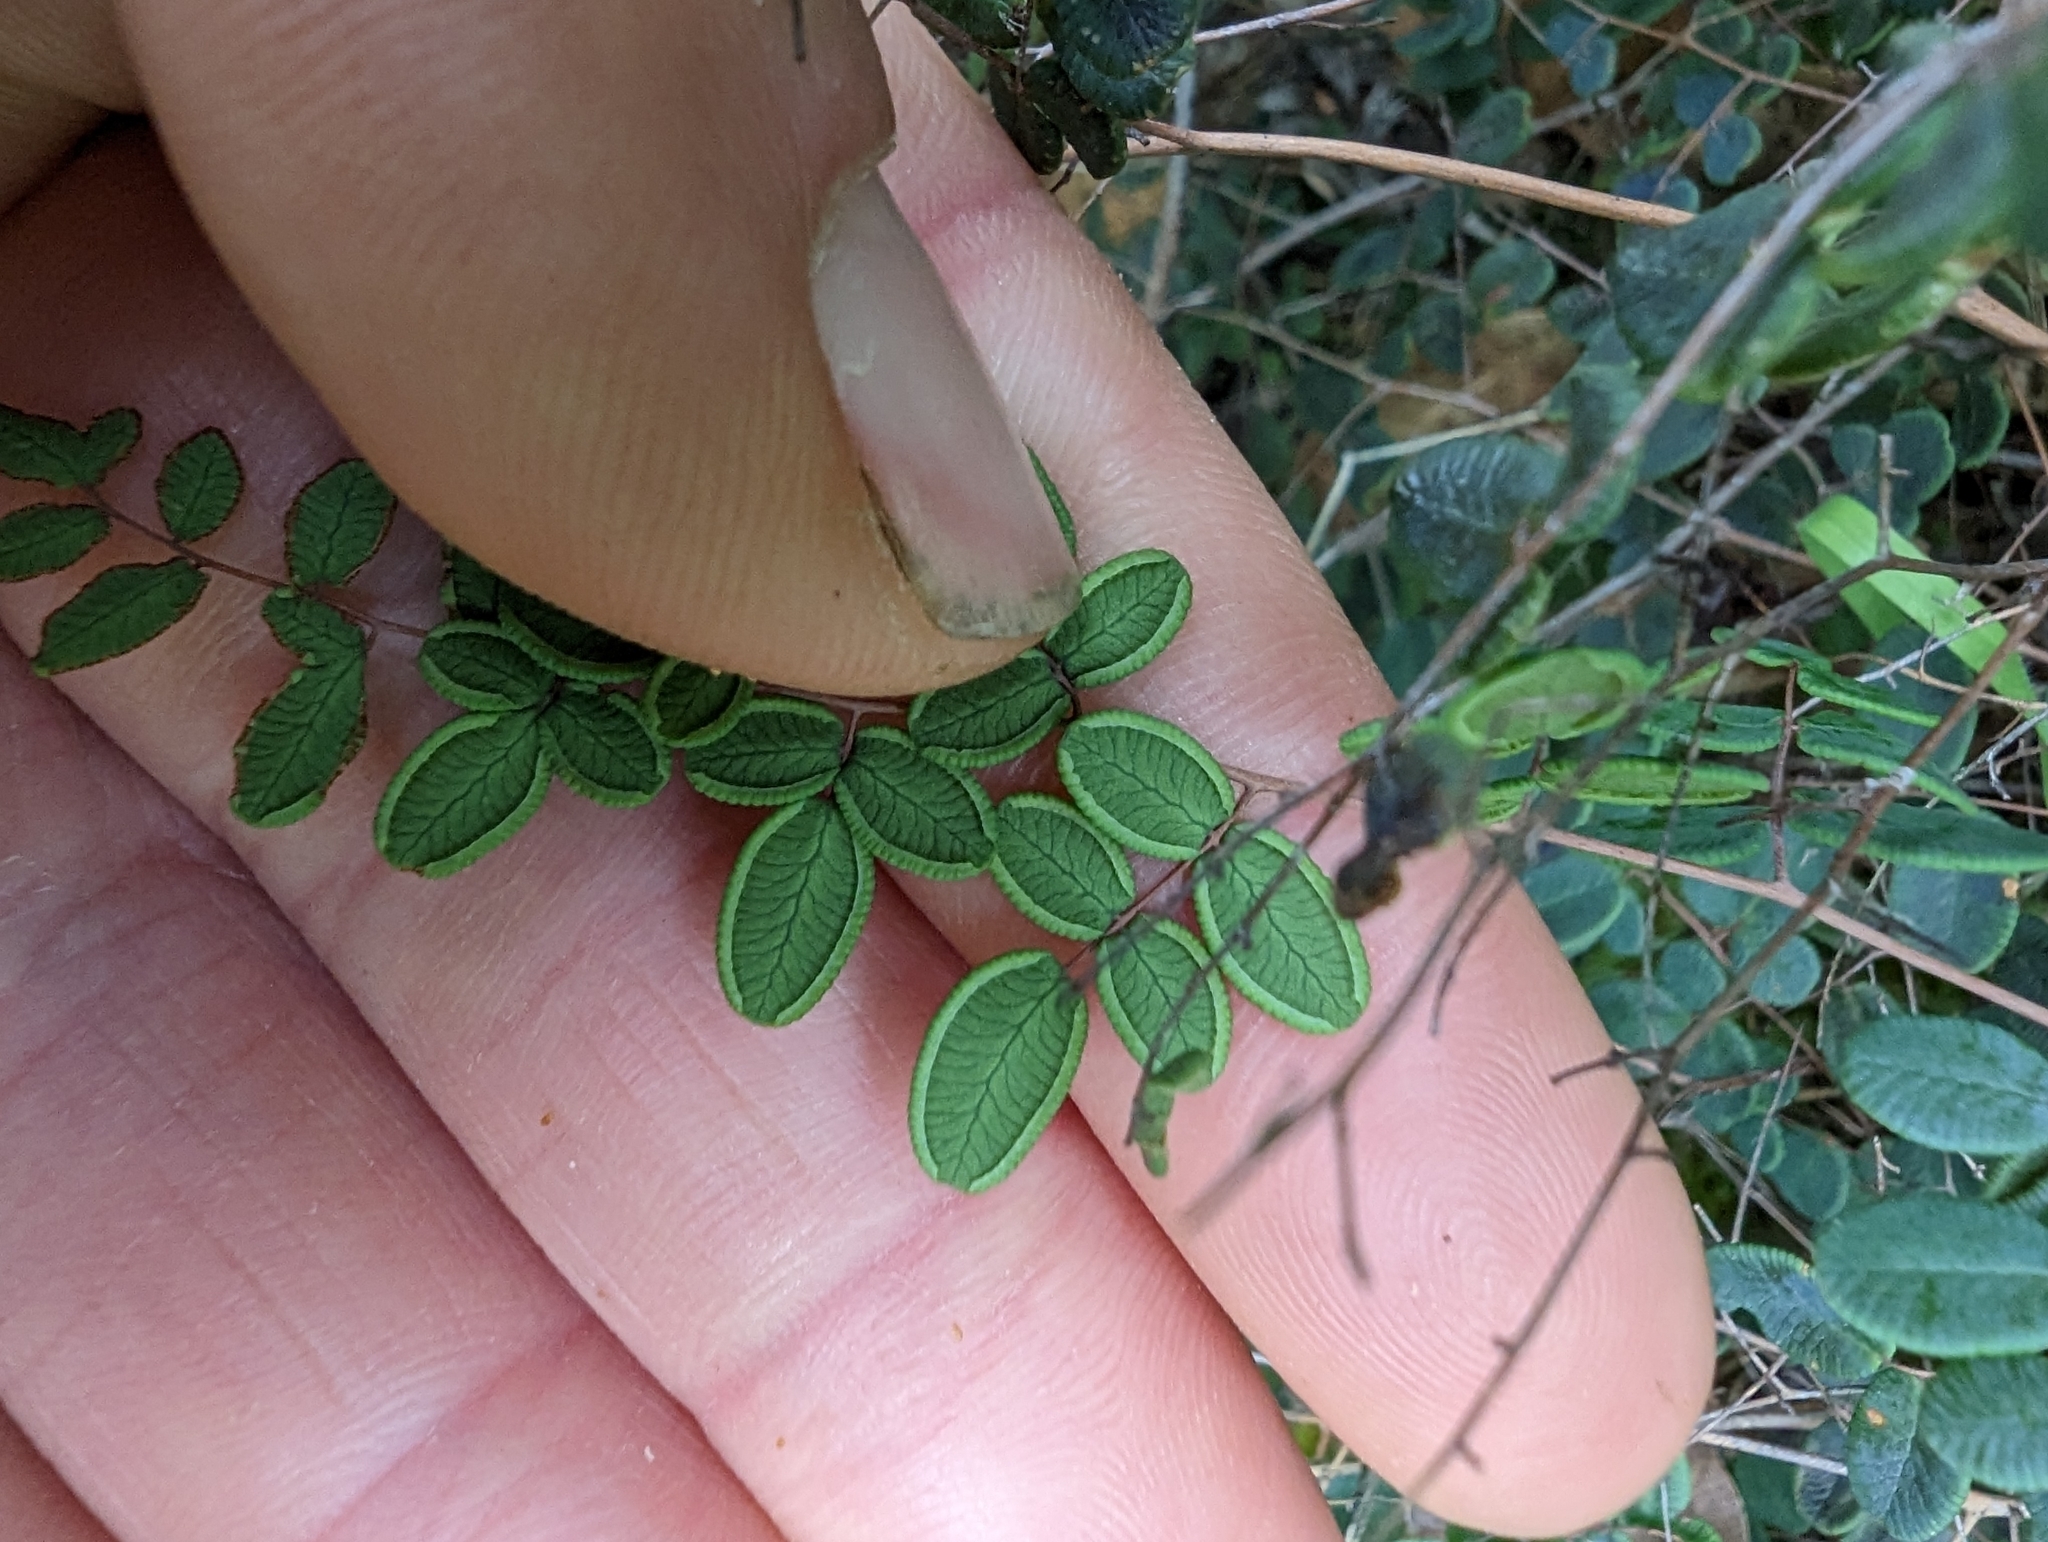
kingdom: Plantae
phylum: Tracheophyta
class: Polypodiopsida
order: Polypodiales
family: Pteridaceae
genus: Pellaea
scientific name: Pellaea andromedifolia
